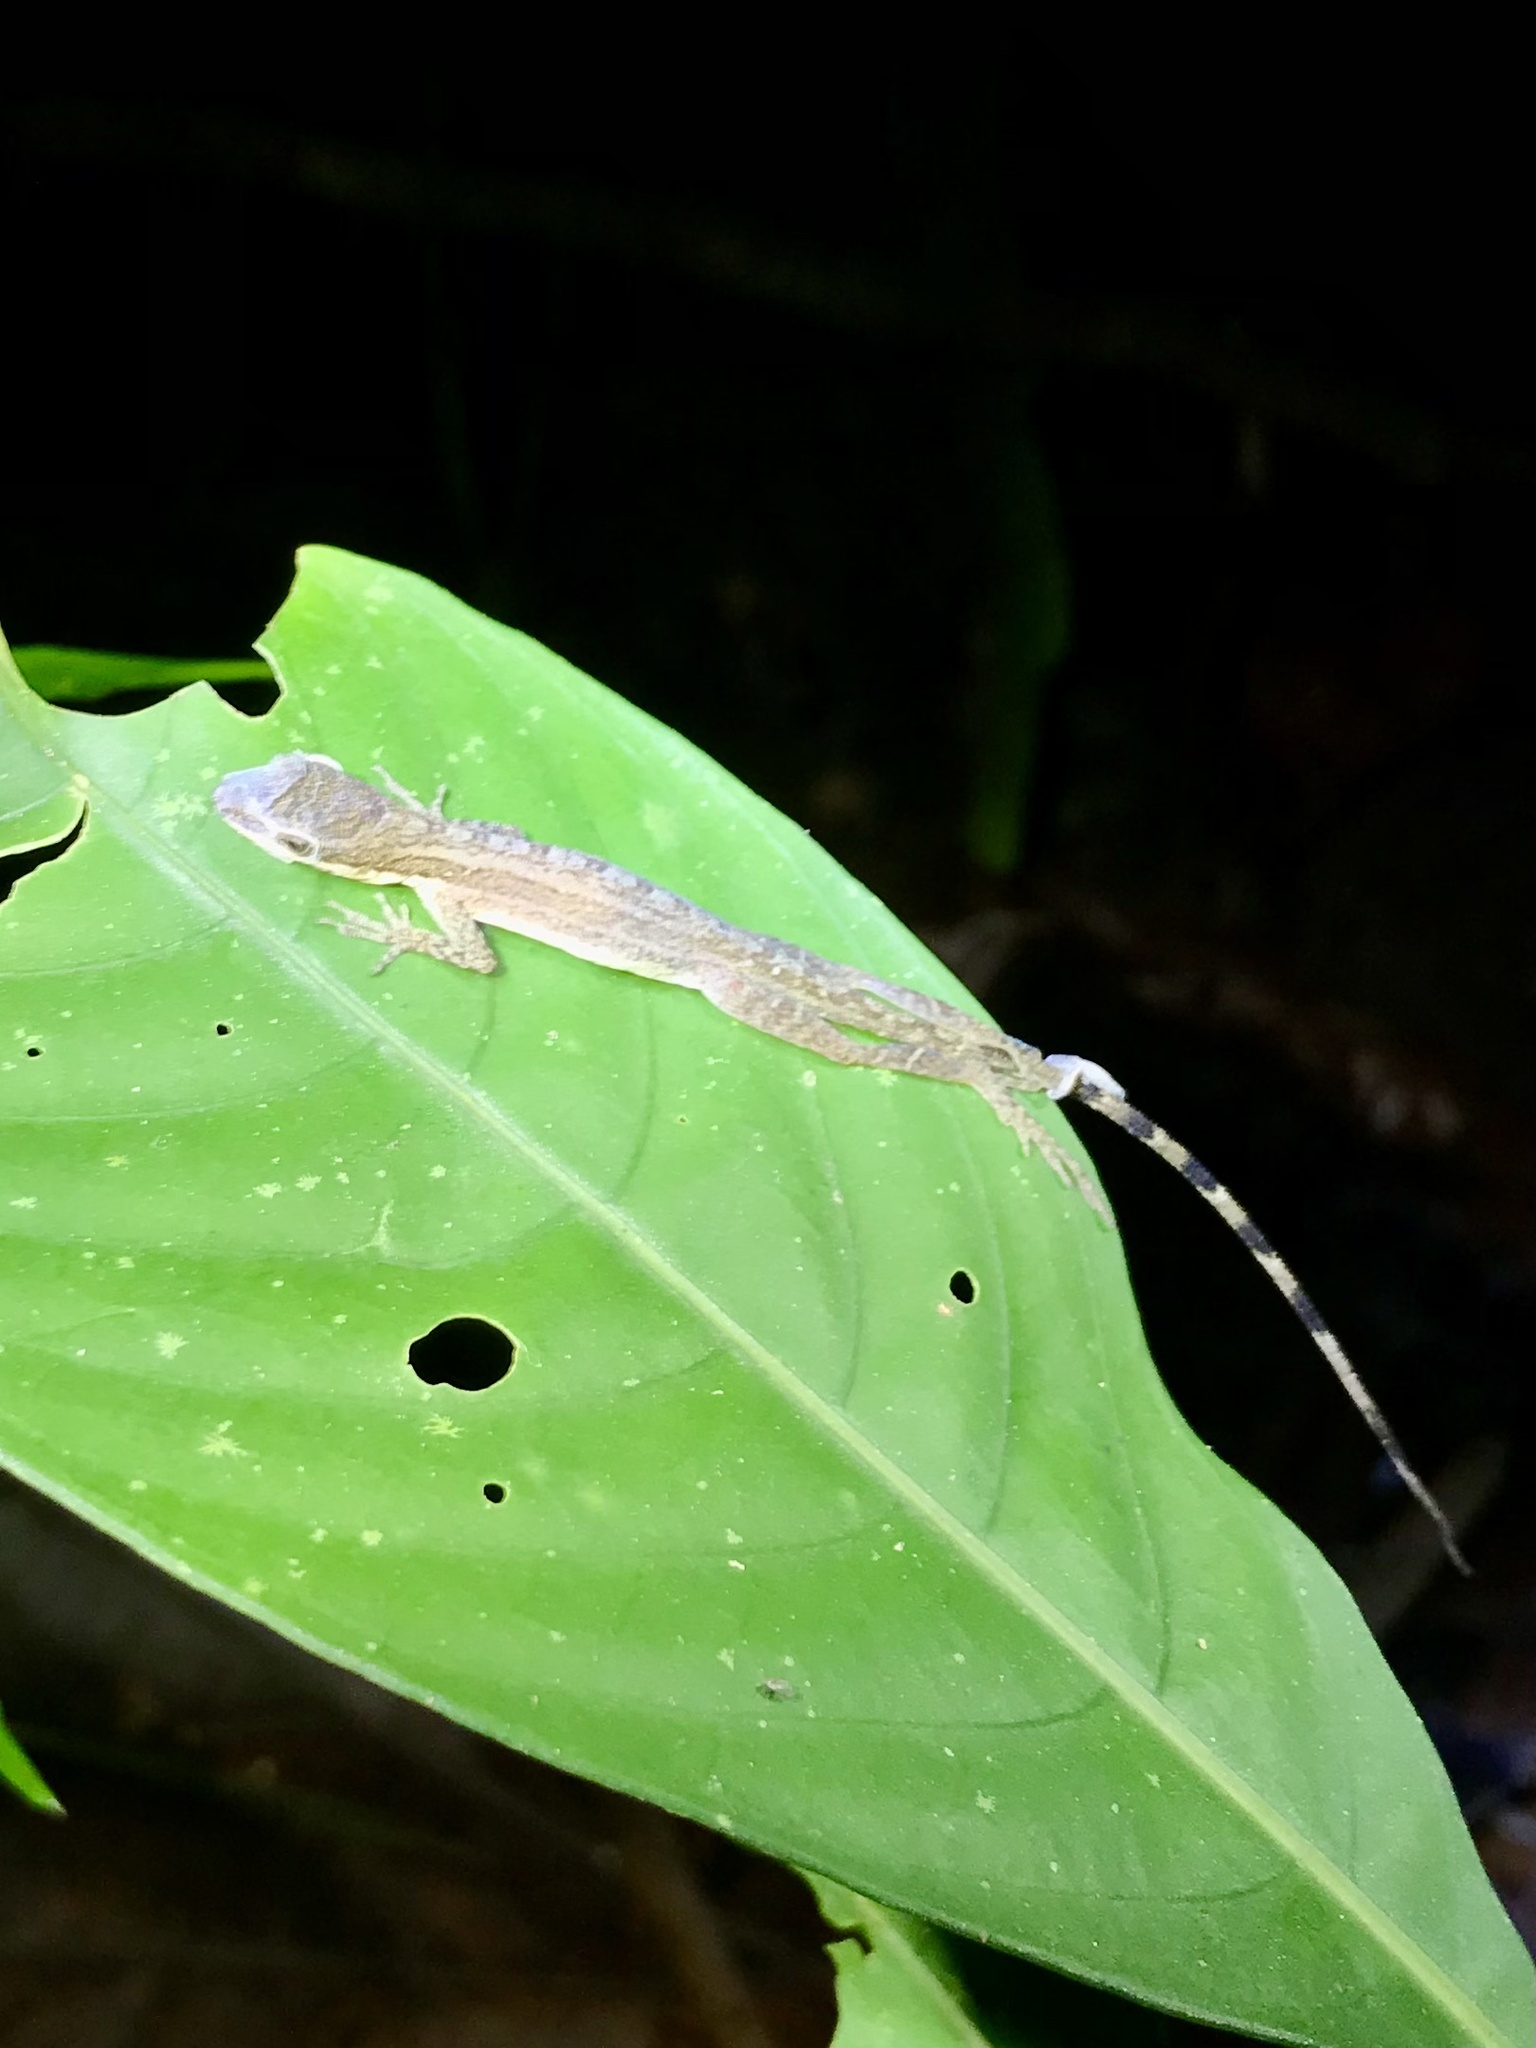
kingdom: Animalia
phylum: Chordata
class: Squamata
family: Dactyloidae
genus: Anolis
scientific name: Anolis limifrons
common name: Border anole
